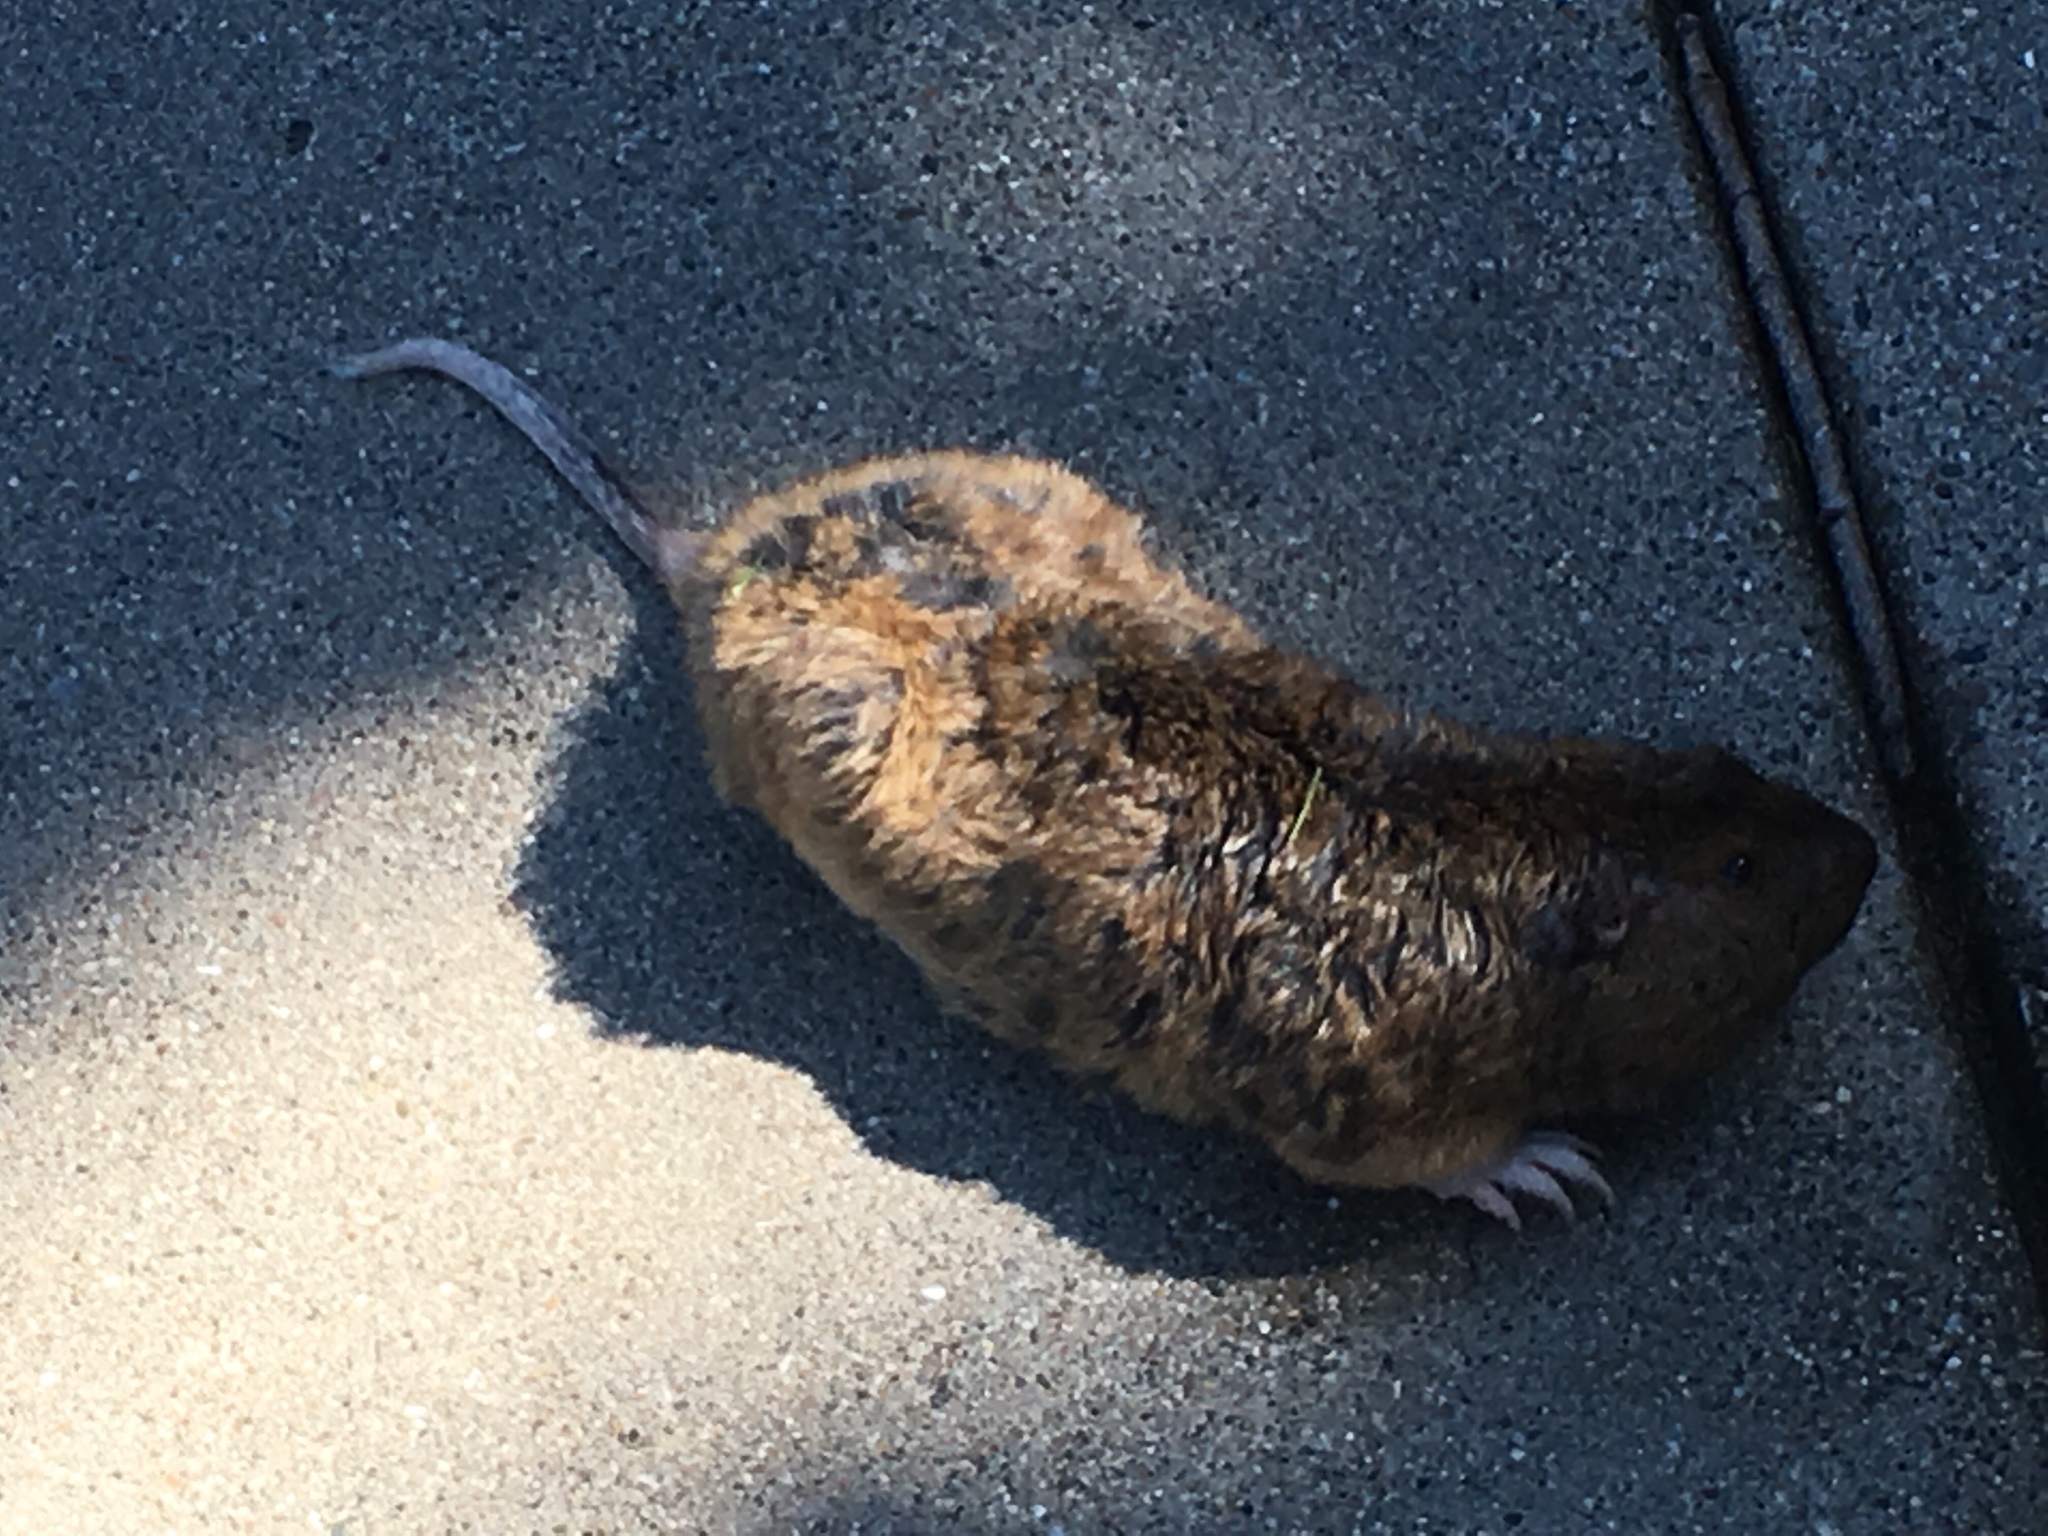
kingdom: Animalia
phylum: Chordata
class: Mammalia
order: Rodentia
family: Geomyidae
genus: Thomomys
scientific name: Thomomys bottae
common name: Botta's pocket gopher
